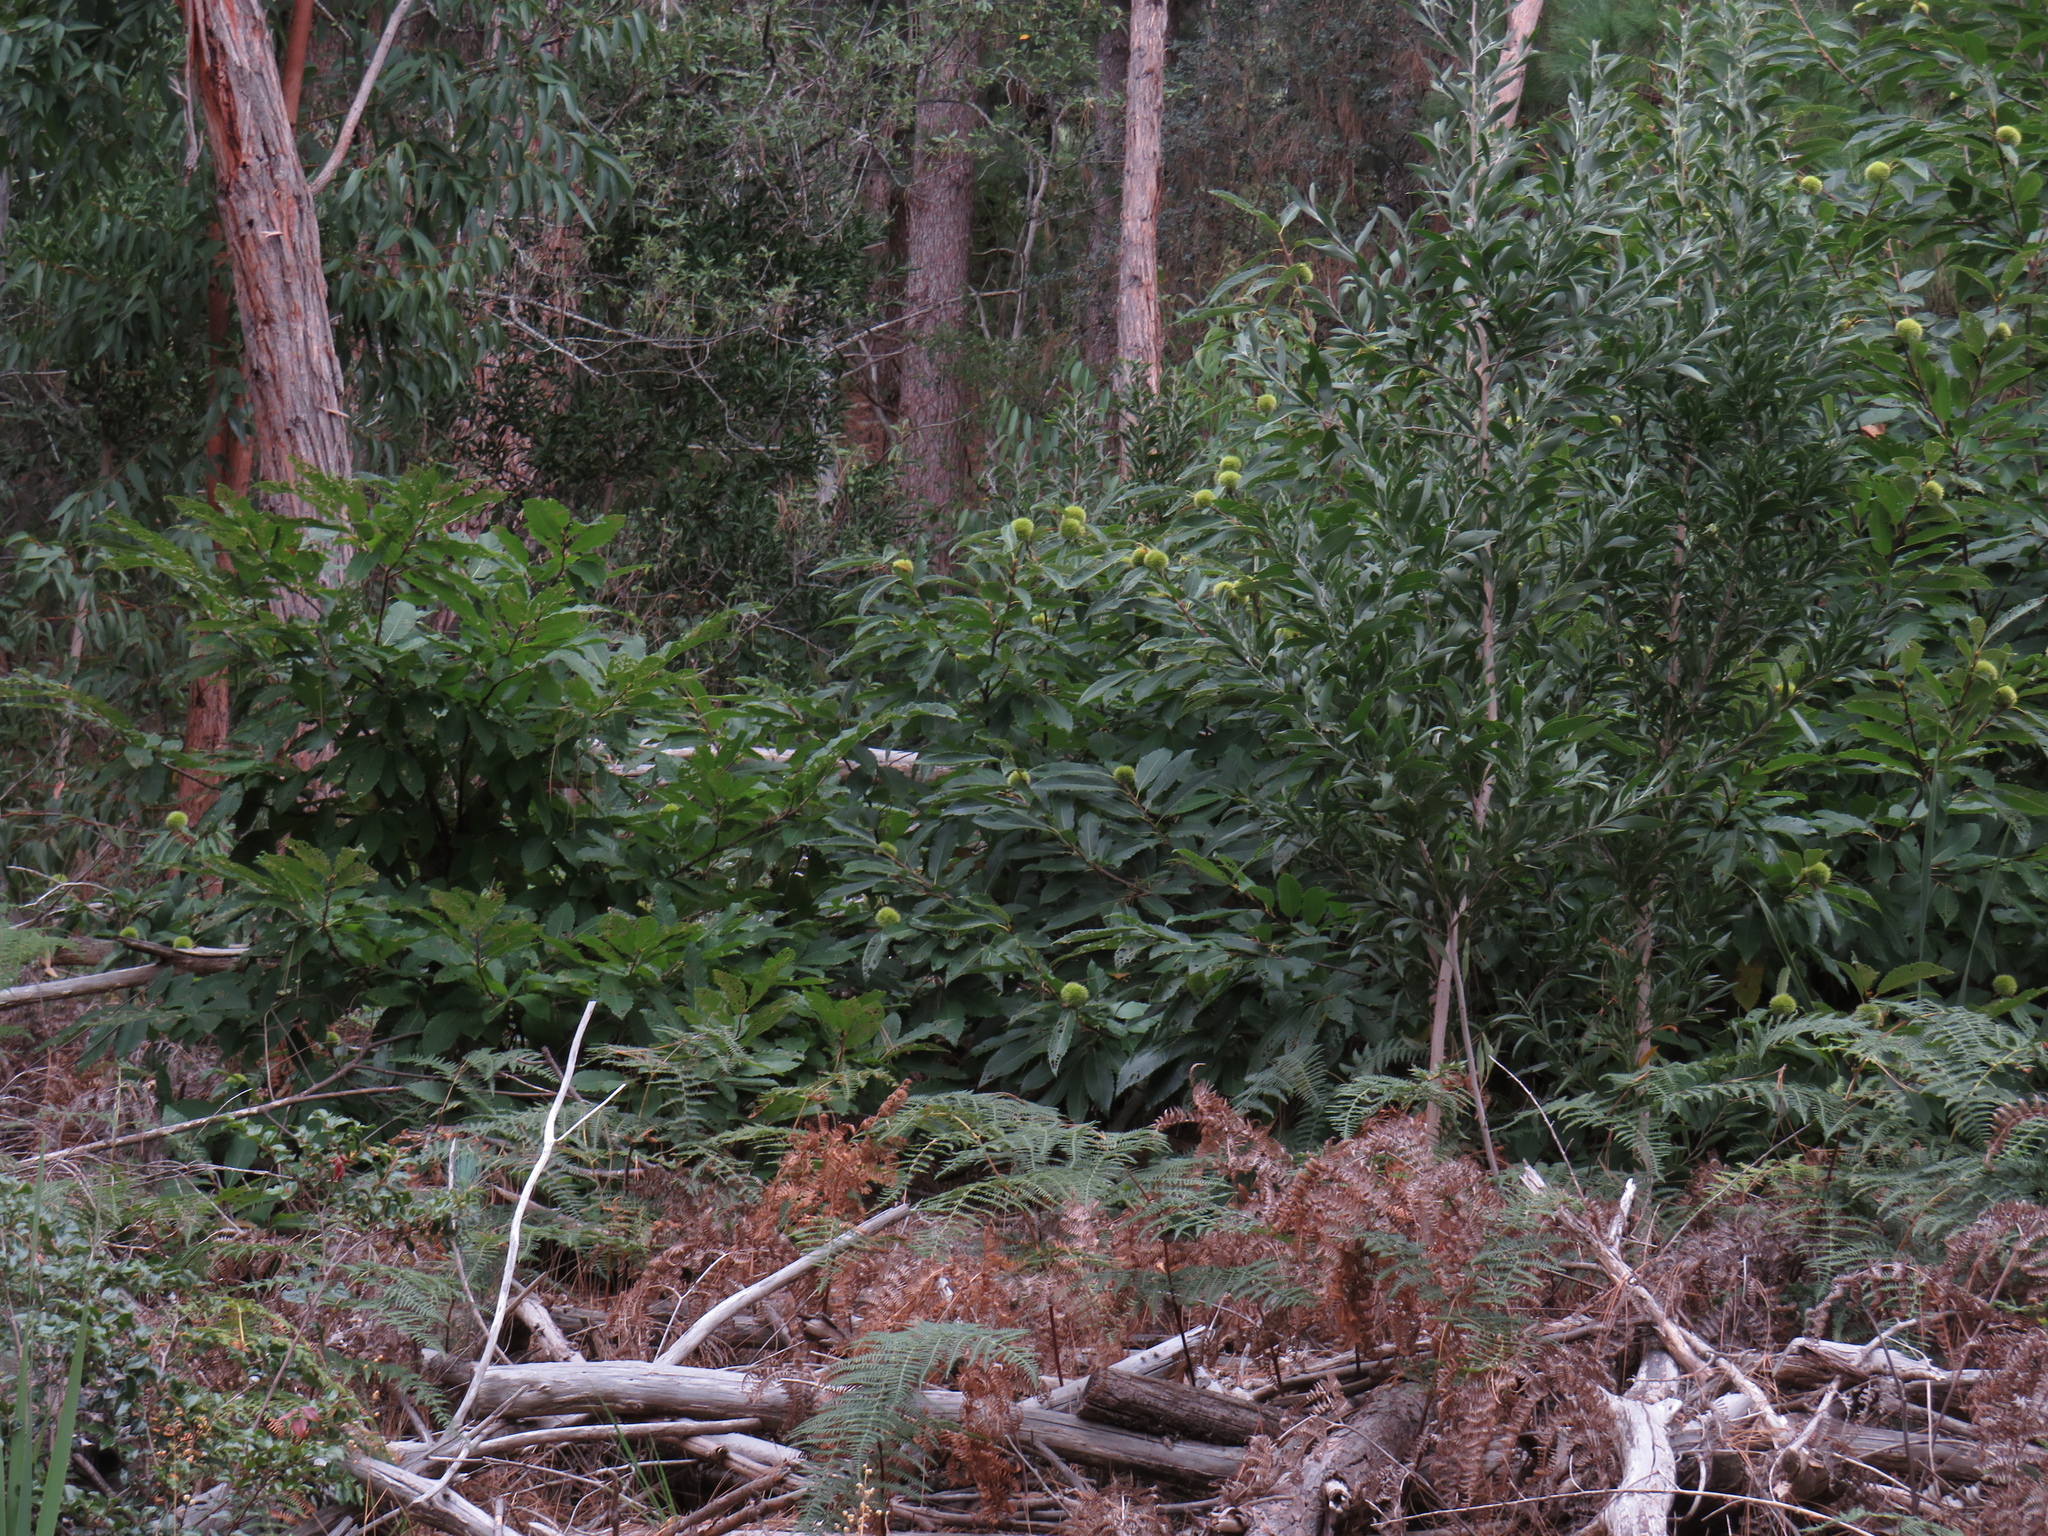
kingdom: Plantae
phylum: Tracheophyta
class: Magnoliopsida
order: Fagales
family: Fagaceae
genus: Castanea
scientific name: Castanea sativa
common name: Sweet chestnut
